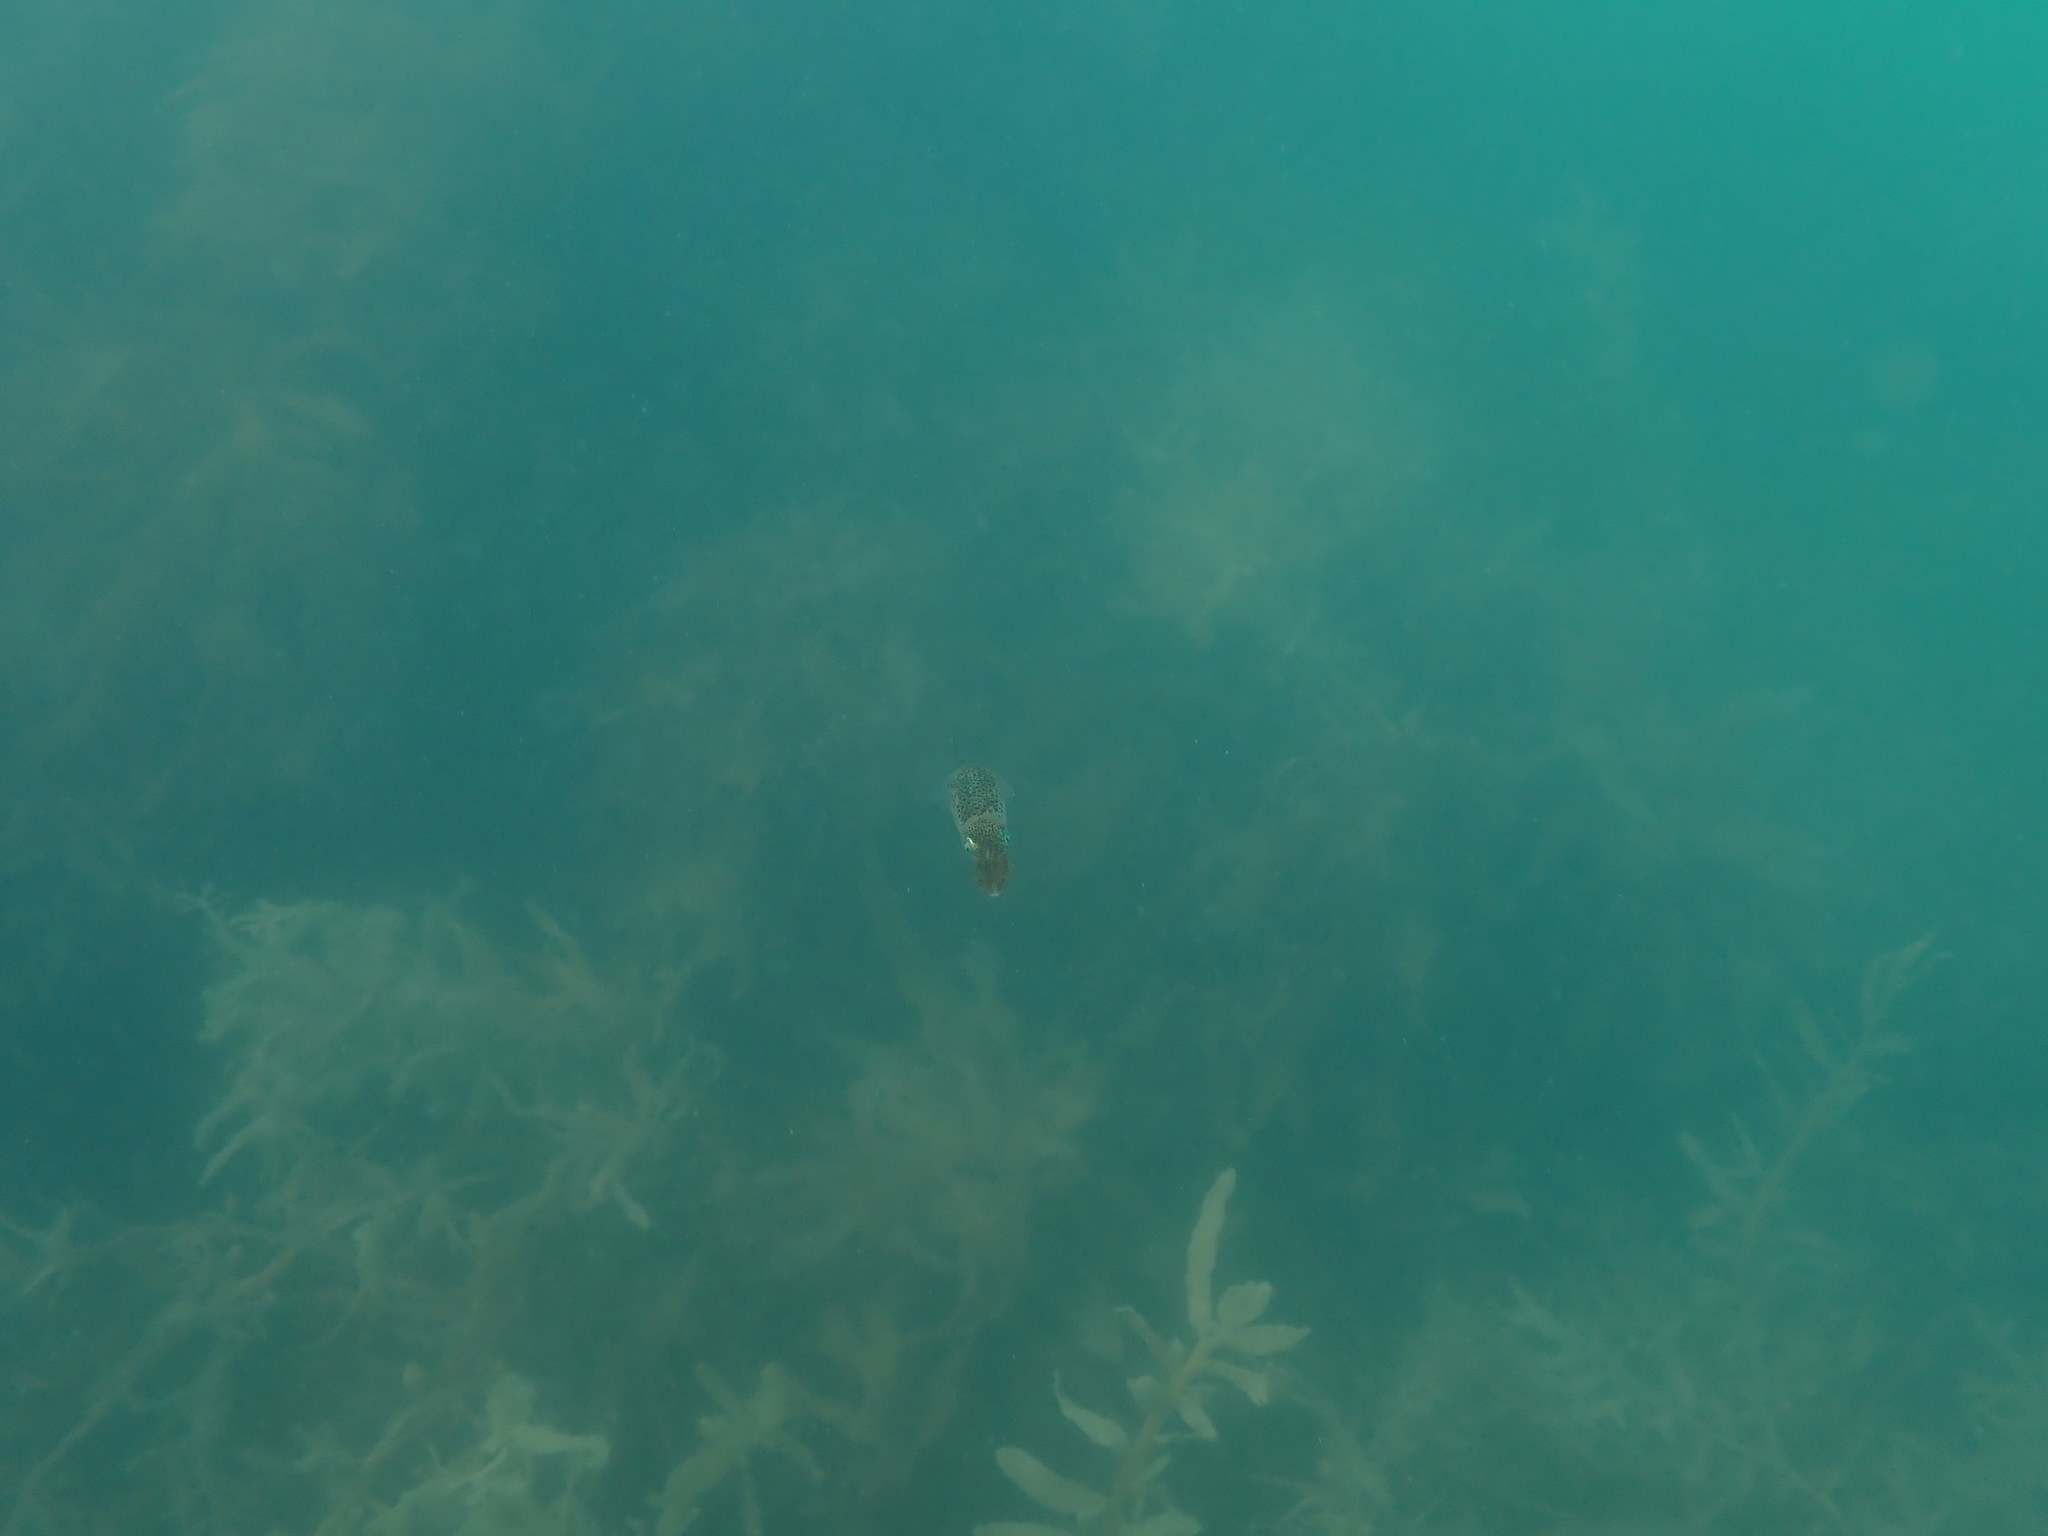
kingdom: Animalia
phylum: Mollusca
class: Cephalopoda
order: Myopsida
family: Loliginidae
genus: Sepioteuthis
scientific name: Sepioteuthis australis
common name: Southern reef squid
